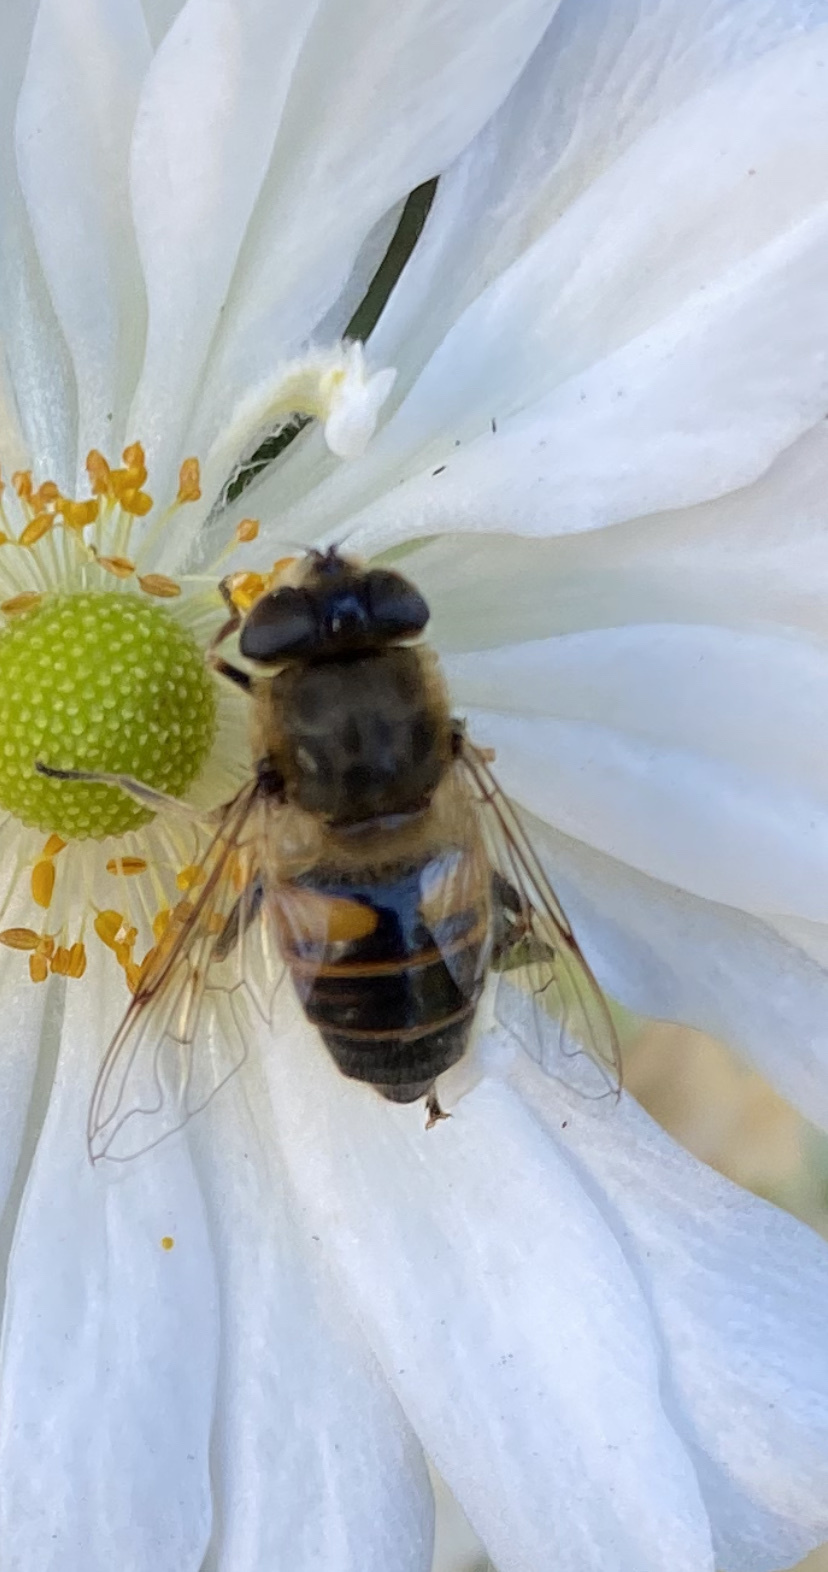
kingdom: Animalia
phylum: Arthropoda
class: Insecta
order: Diptera
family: Syrphidae
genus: Eristalis
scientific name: Eristalis tenax
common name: Drone fly
